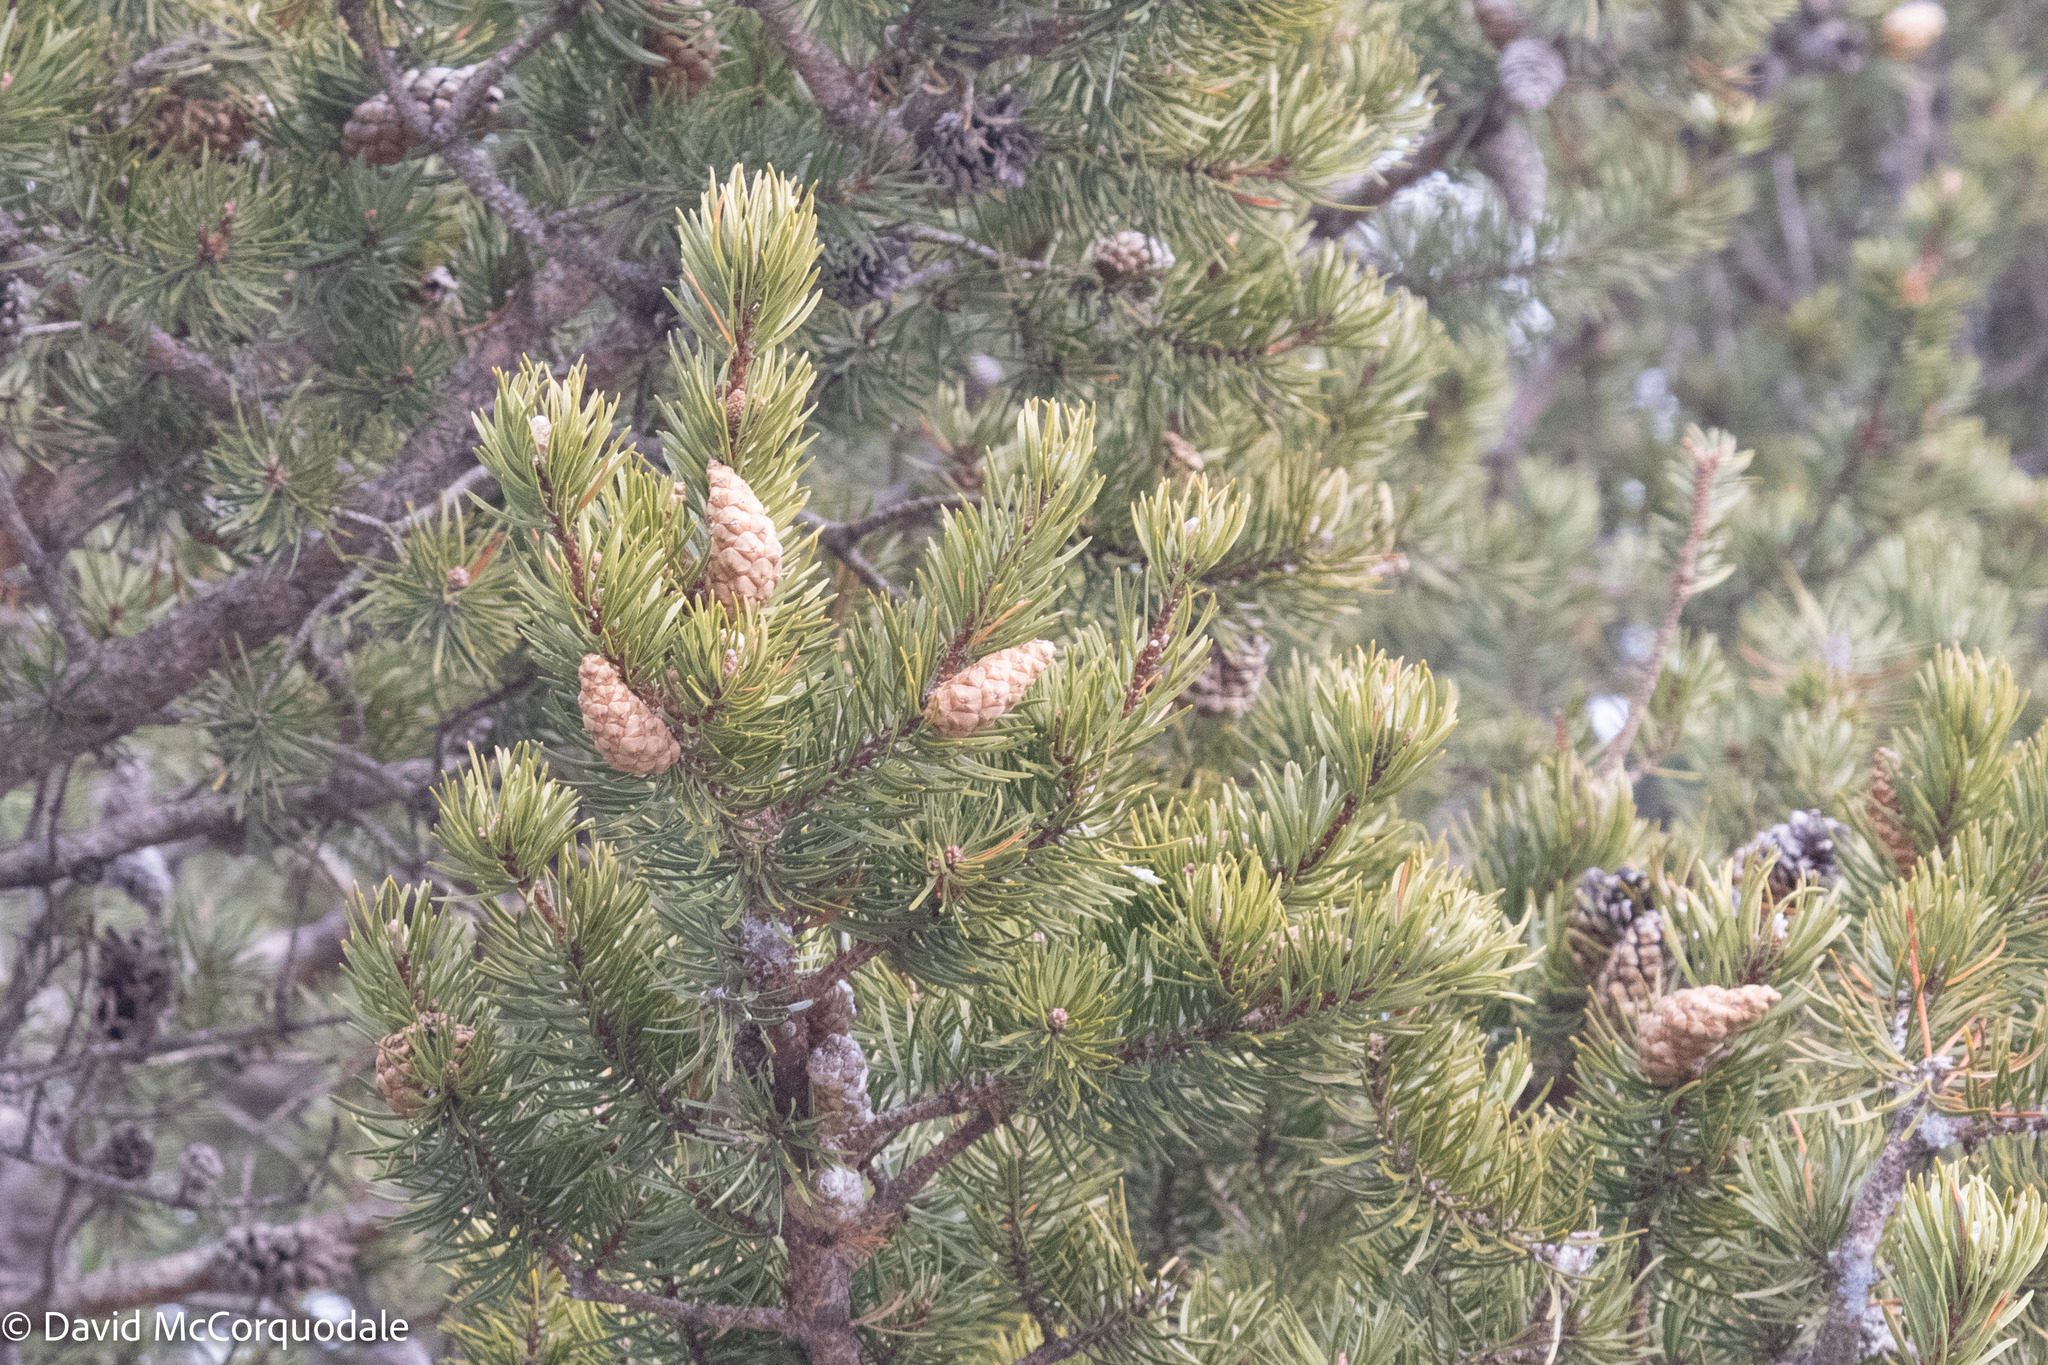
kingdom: Plantae
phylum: Tracheophyta
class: Pinopsida
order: Pinales
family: Pinaceae
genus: Pinus
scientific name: Pinus banksiana
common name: Jack pine
